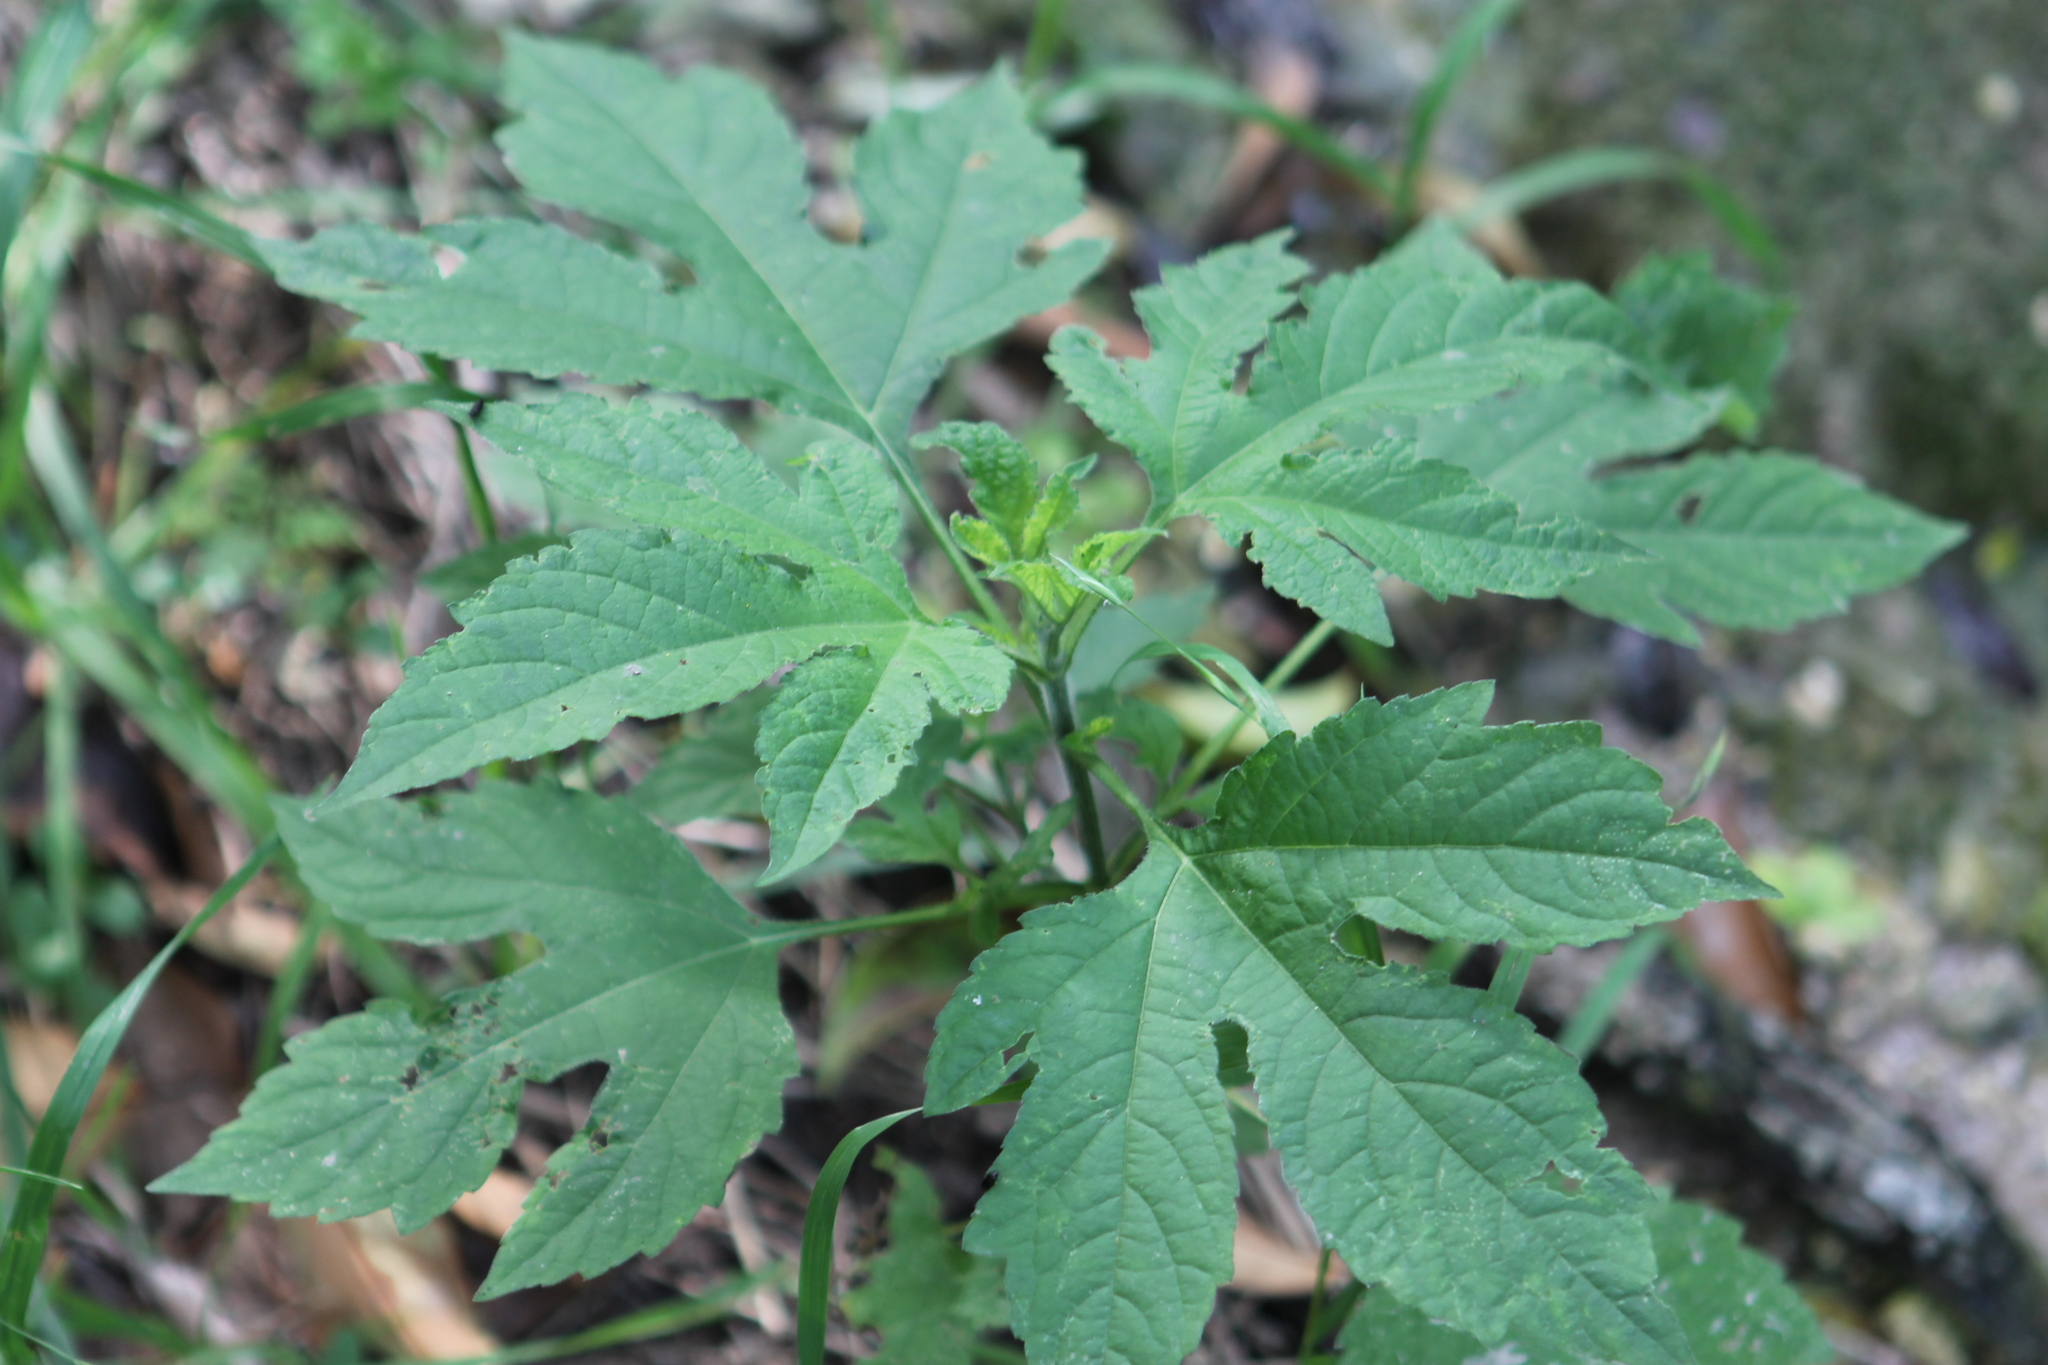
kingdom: Plantae
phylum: Tracheophyta
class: Magnoliopsida
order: Asterales
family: Asteraceae
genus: Ambrosia
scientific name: Ambrosia trifida
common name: Giant ragweed
